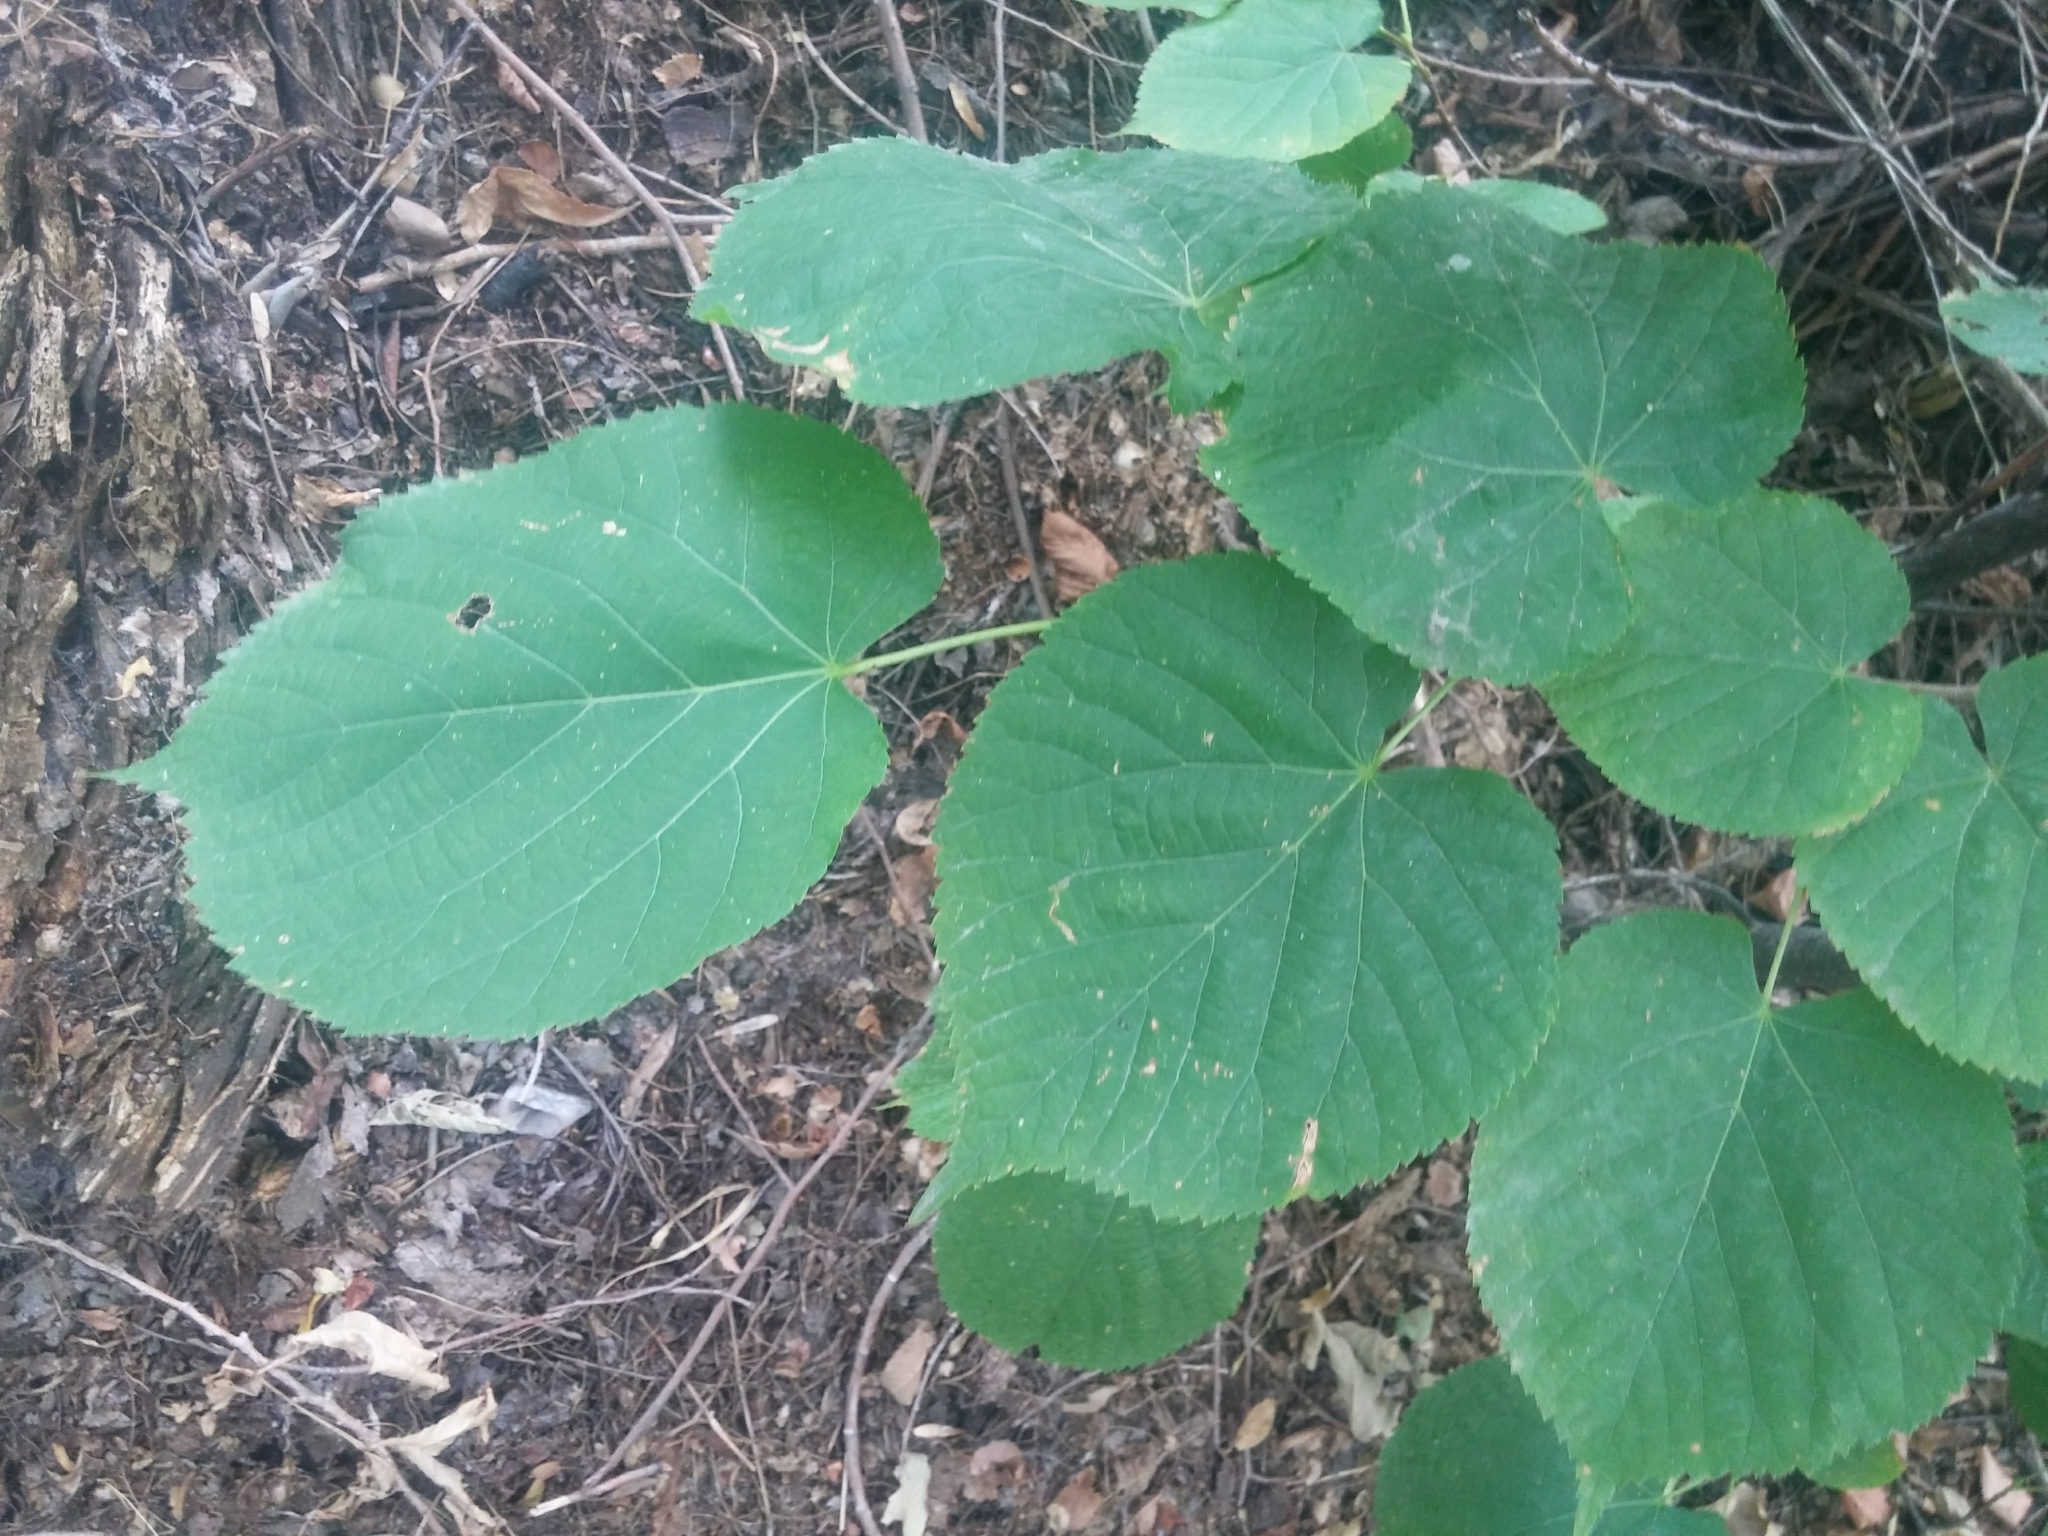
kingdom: Plantae
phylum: Tracheophyta
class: Magnoliopsida
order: Malvales
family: Malvaceae
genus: Tilia
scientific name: Tilia americana
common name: Basswood
